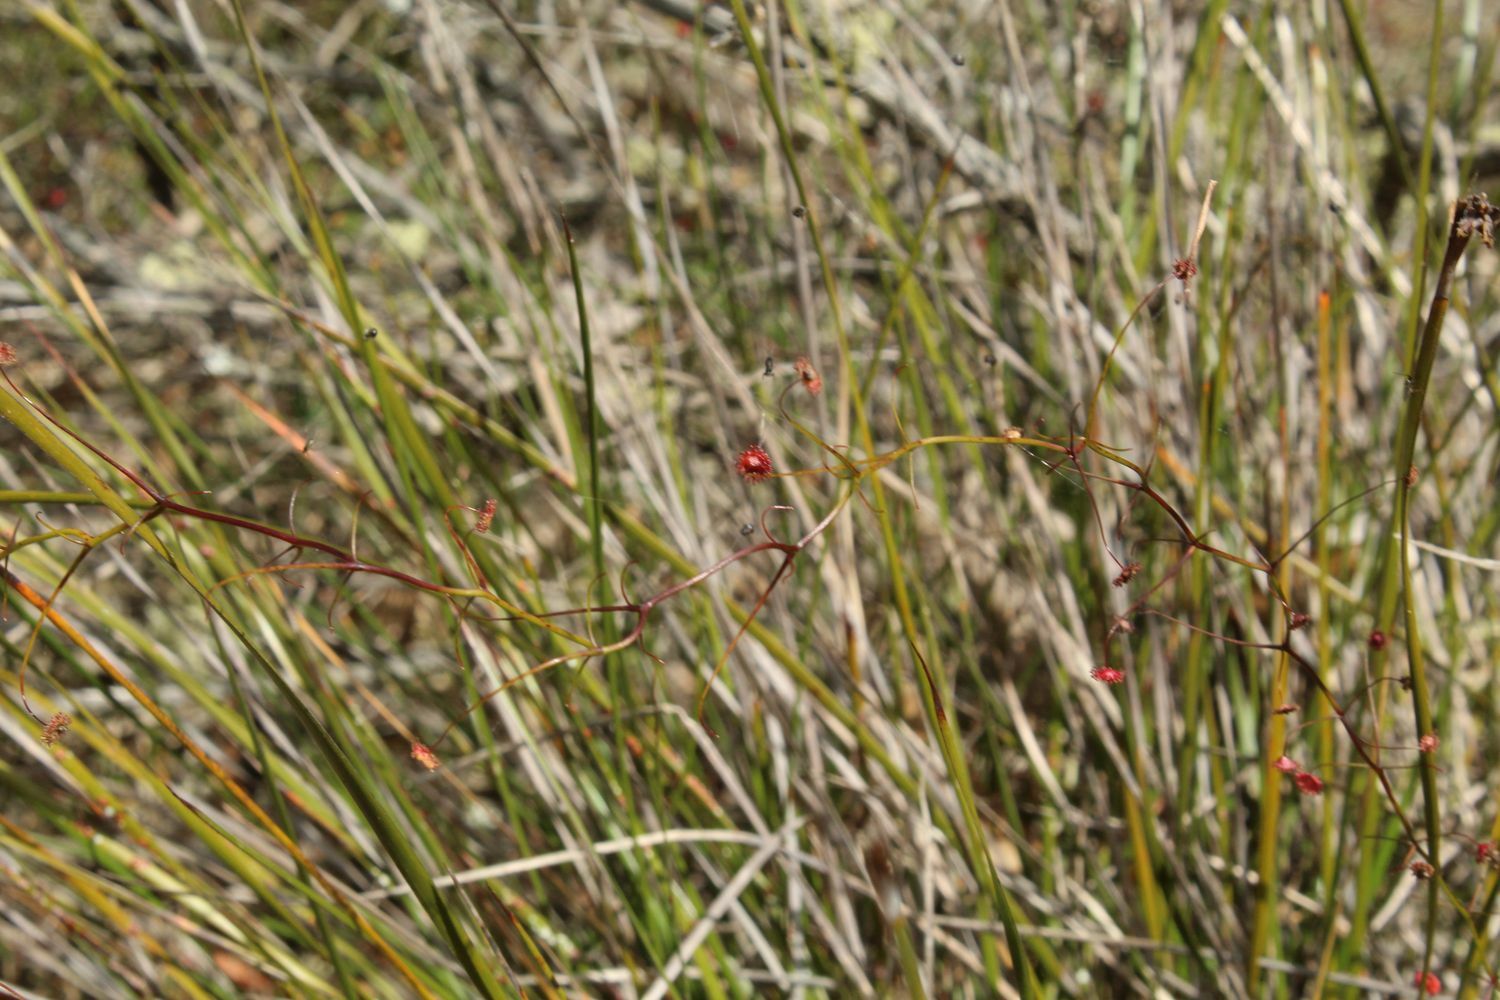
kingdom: Plantae
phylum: Tracheophyta
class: Magnoliopsida
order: Caryophyllales
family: Droseraceae
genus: Drosera
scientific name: Drosera pallida
